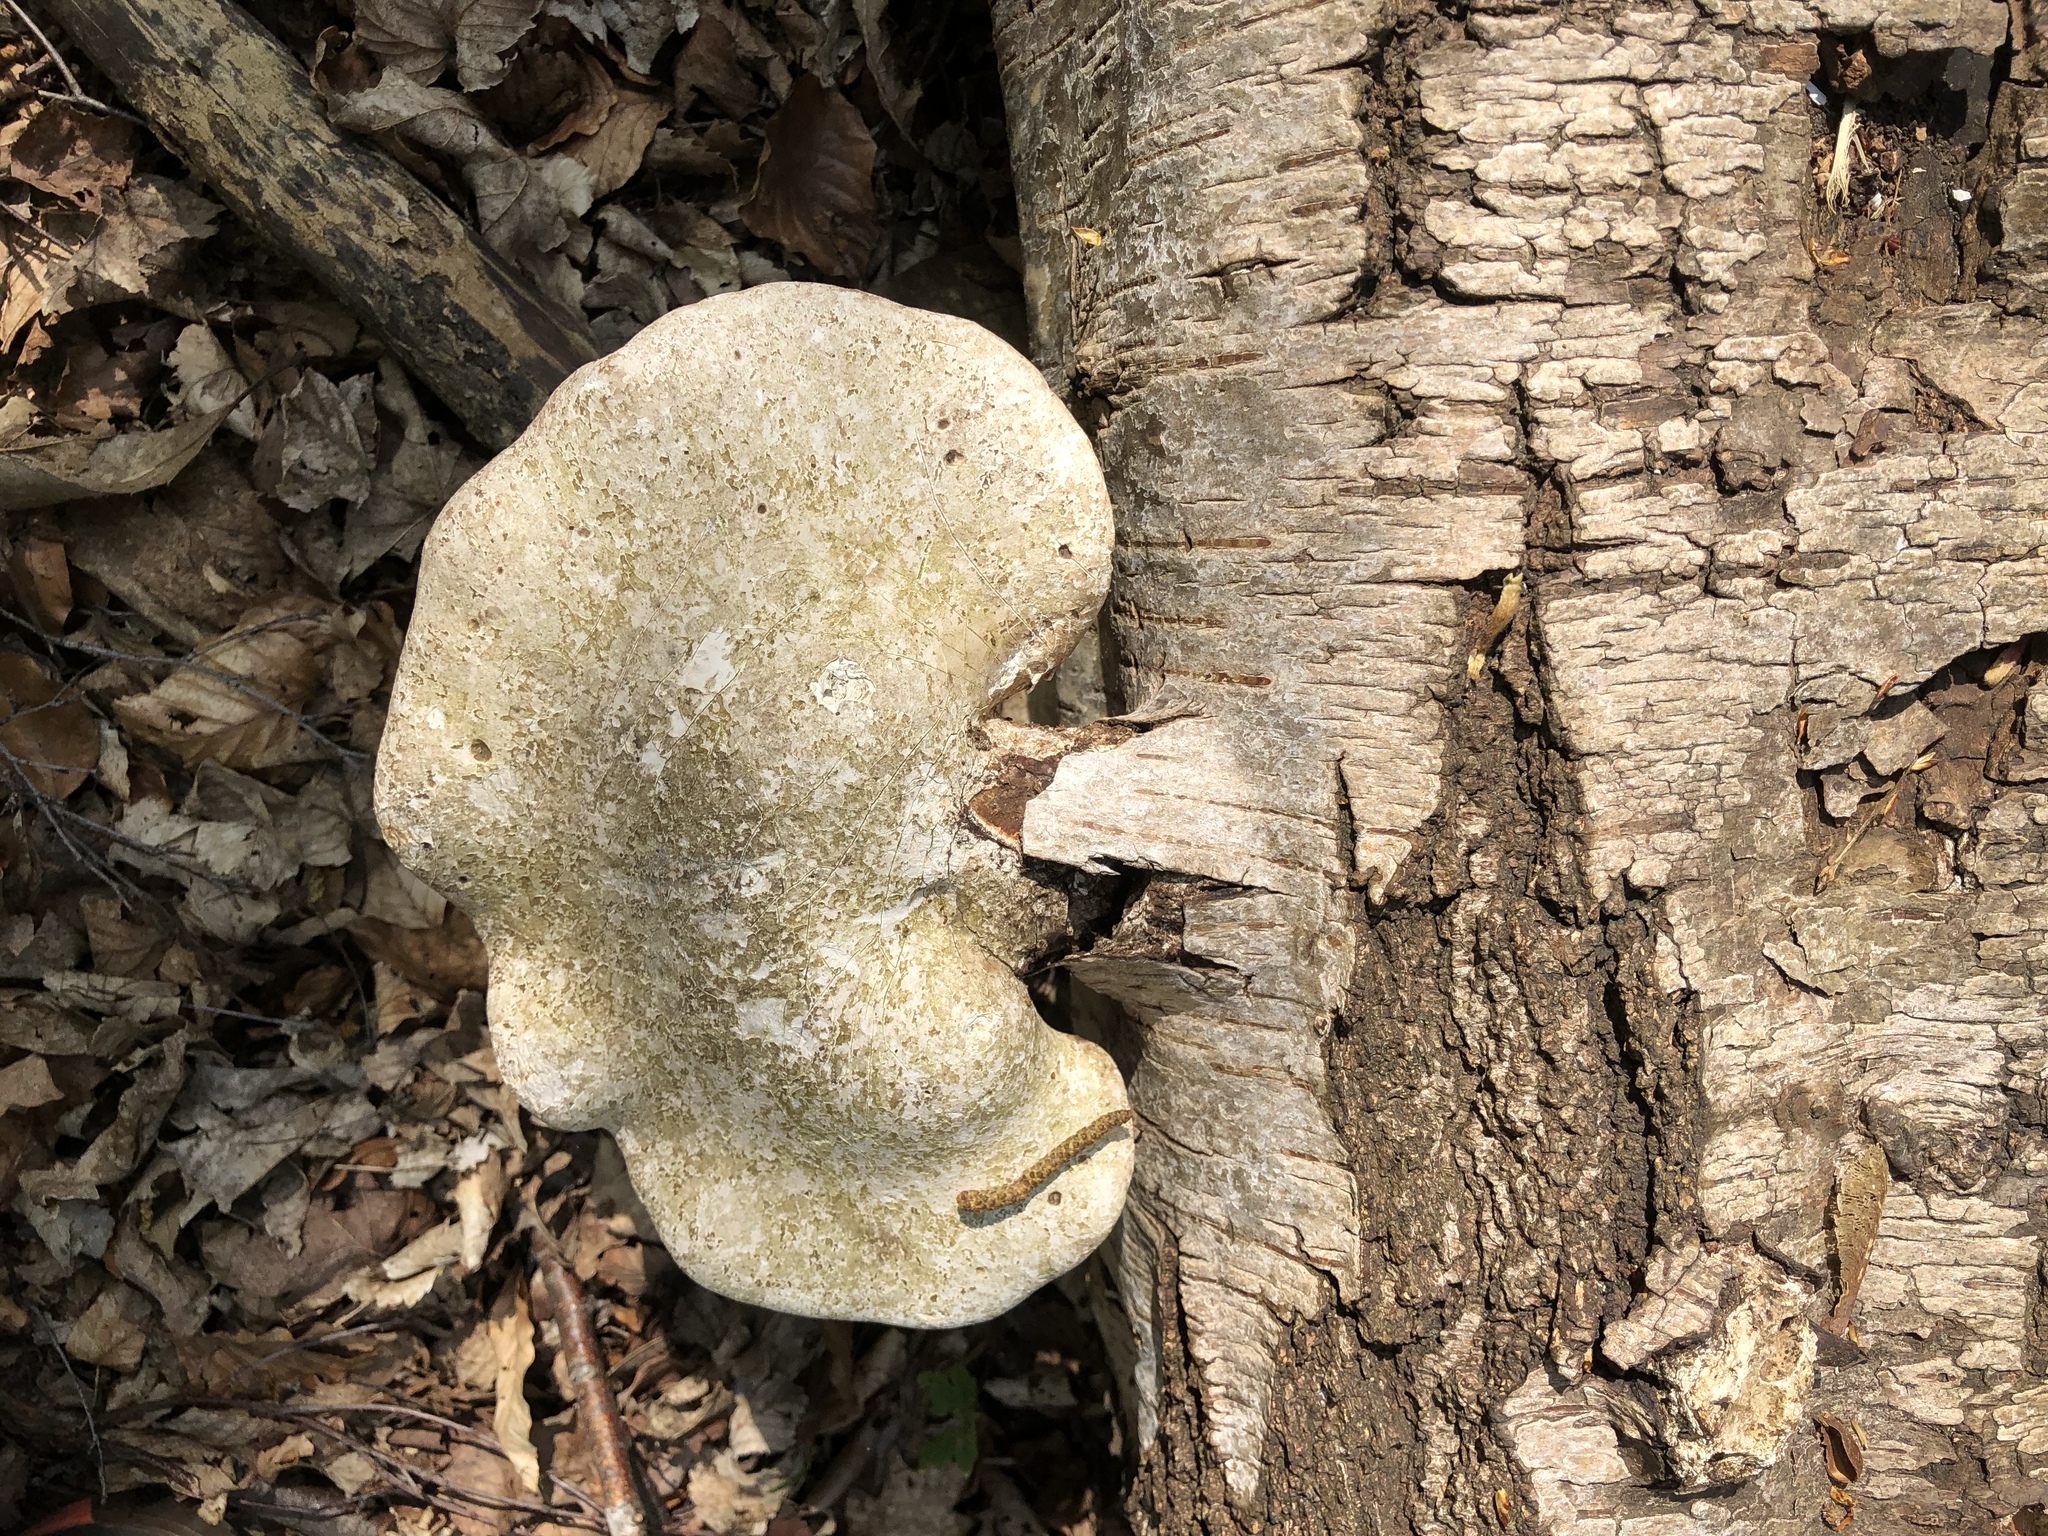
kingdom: Fungi
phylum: Basidiomycota
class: Agaricomycetes
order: Polyporales
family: Fomitopsidaceae
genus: Fomitopsis
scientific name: Fomitopsis betulina
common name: Birch polypore
